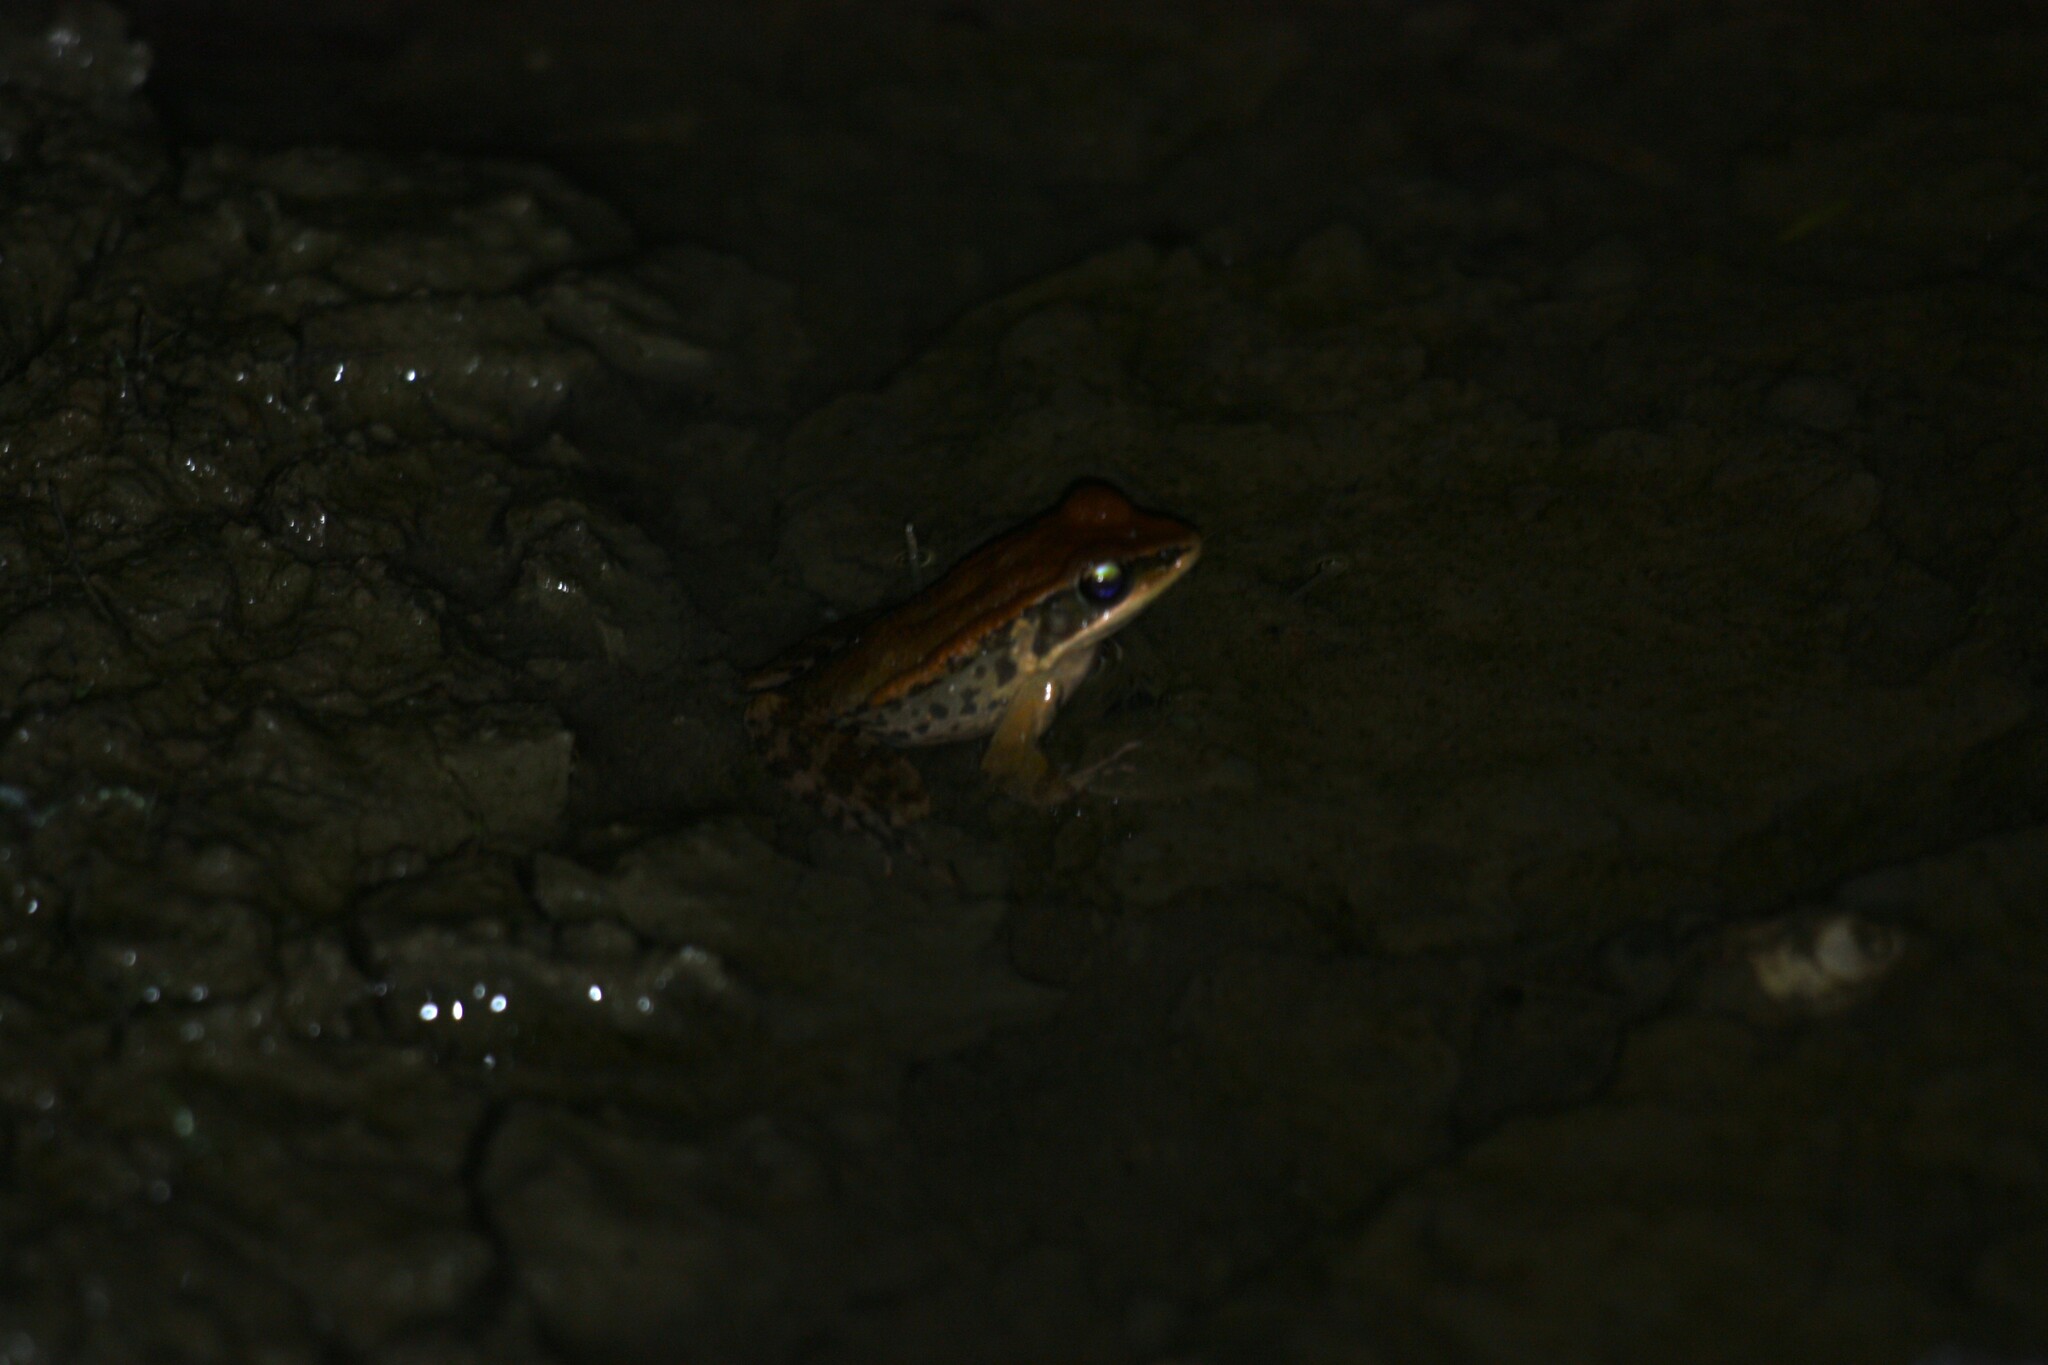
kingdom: Animalia
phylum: Chordata
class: Amphibia
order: Anura
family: Ranidae
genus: Hylarana
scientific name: Hylarana latouchii
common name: Broad-folded frog
